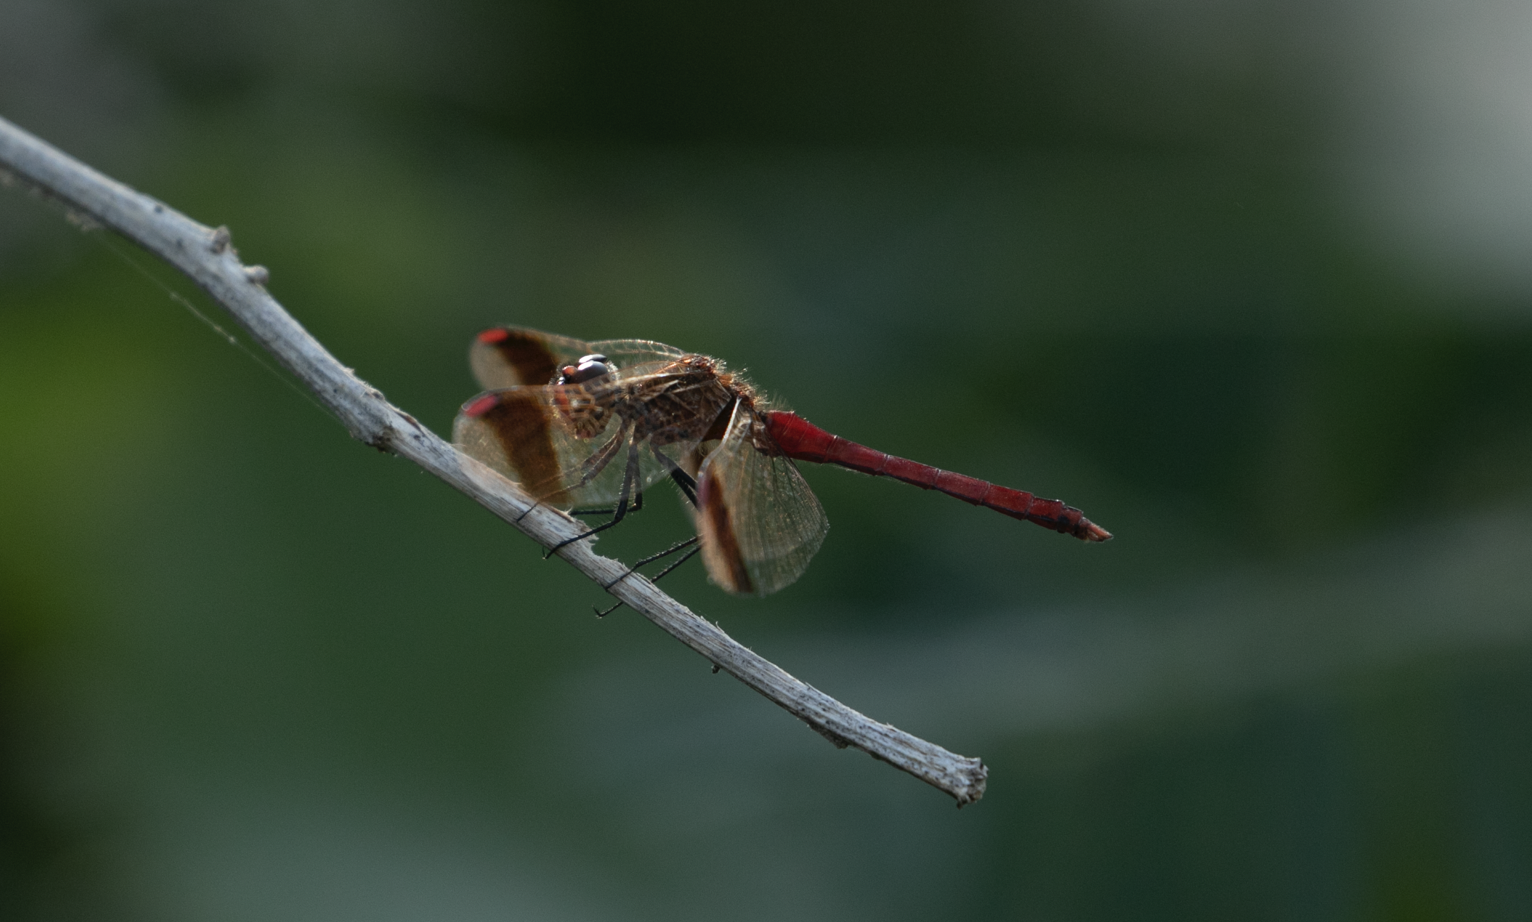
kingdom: Animalia
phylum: Arthropoda
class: Insecta
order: Odonata
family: Libellulidae
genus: Sympetrum
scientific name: Sympetrum pedemontanum
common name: Banded darter
